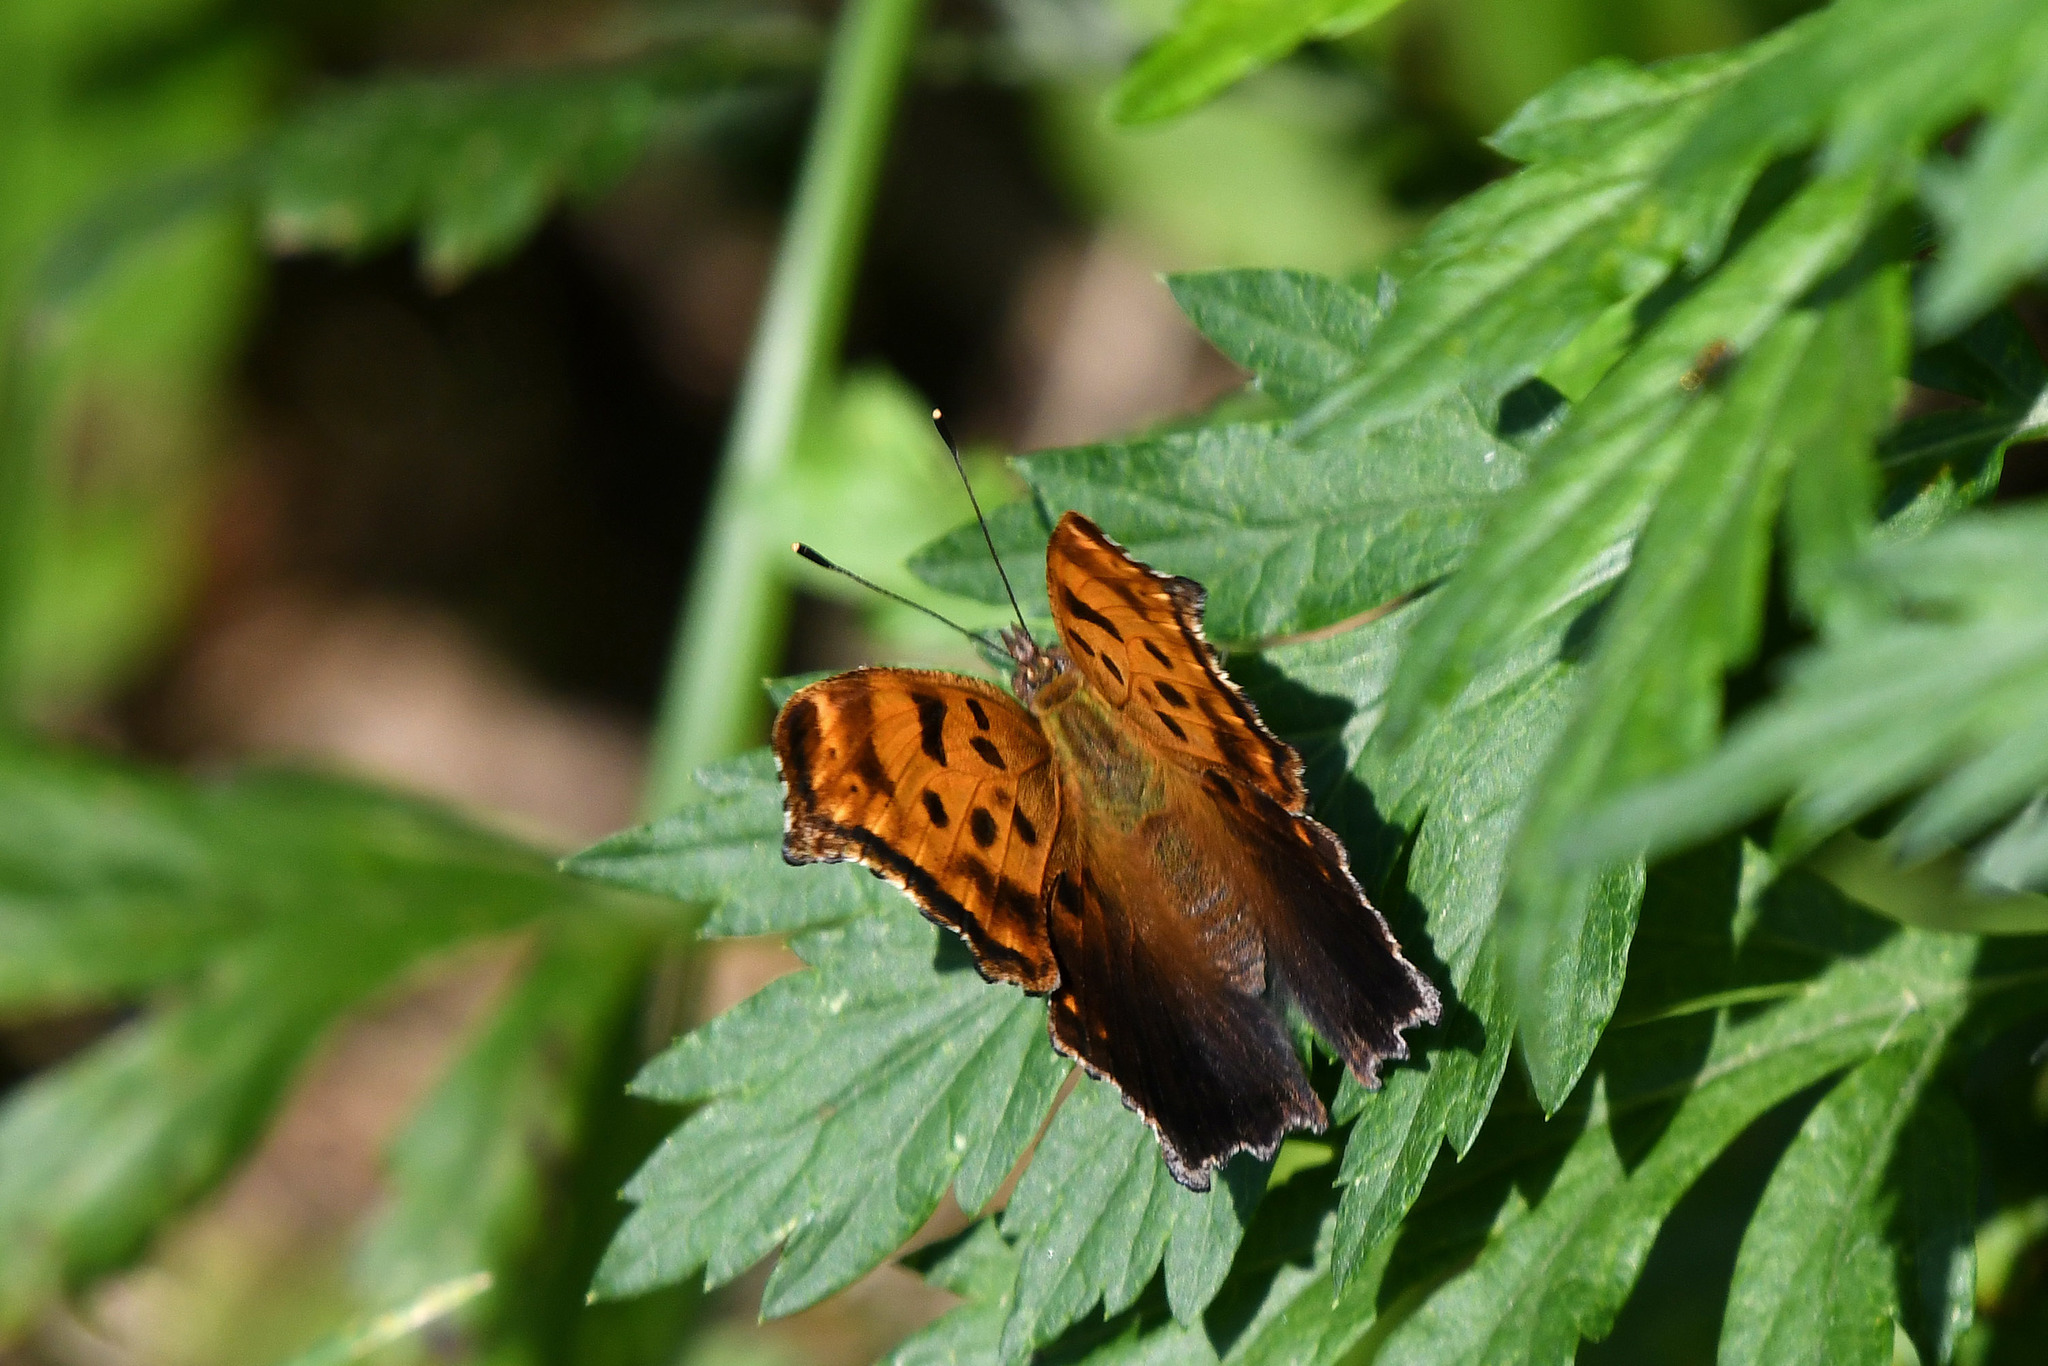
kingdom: Animalia
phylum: Arthropoda
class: Insecta
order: Lepidoptera
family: Nymphalidae
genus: Polygonia
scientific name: Polygonia comma
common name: Eastern comma
